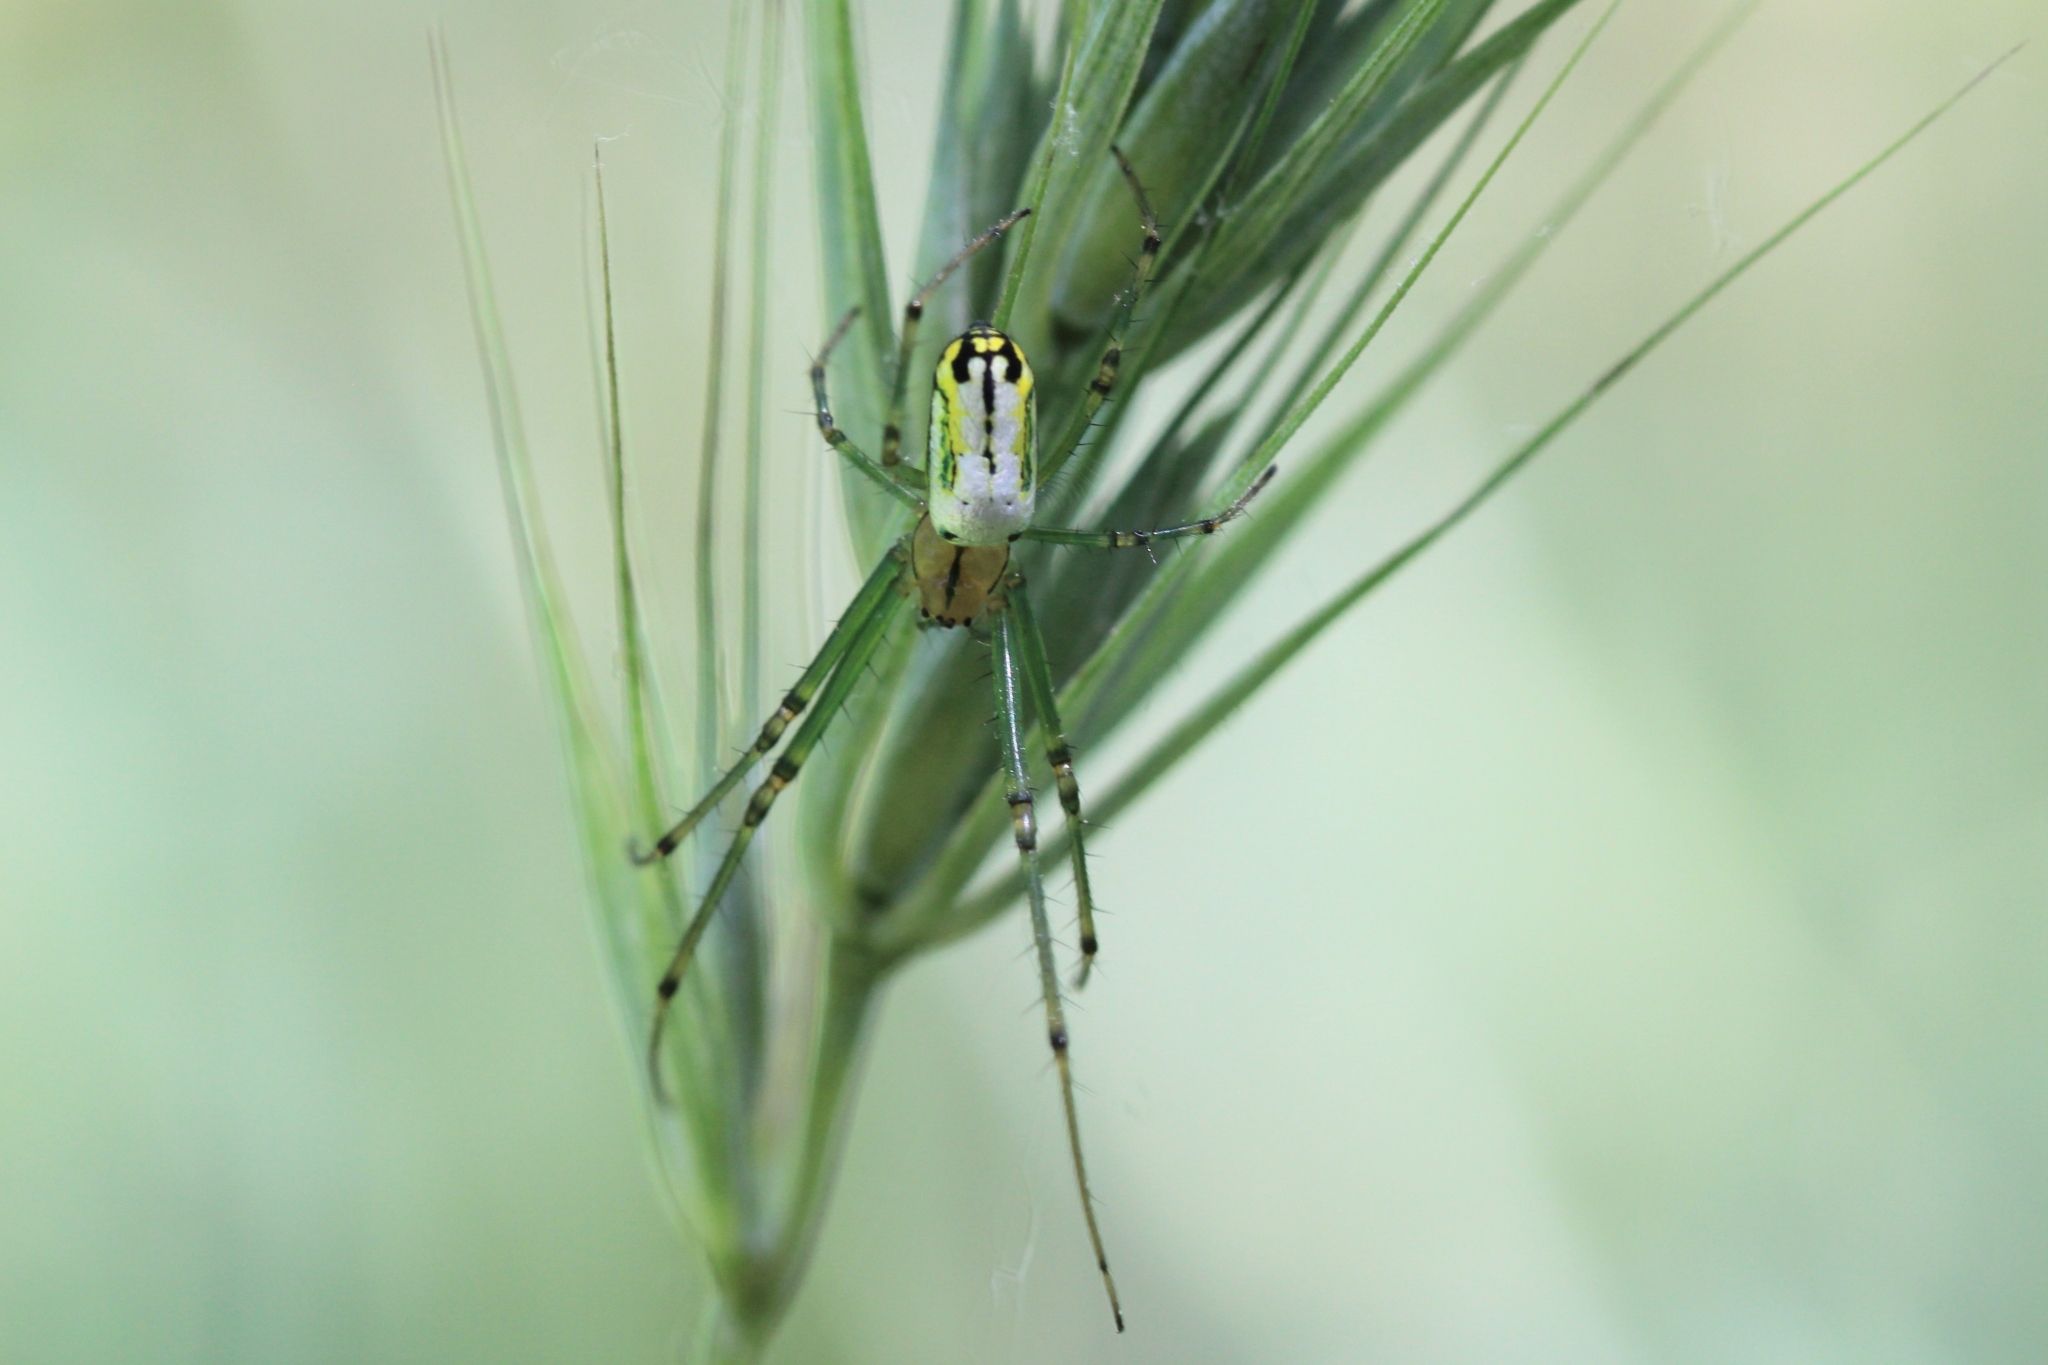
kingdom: Animalia
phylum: Arthropoda
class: Arachnida
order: Araneae
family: Tetragnathidae
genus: Leucauge
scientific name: Leucauge venusta
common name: Longjawed orb weavers
